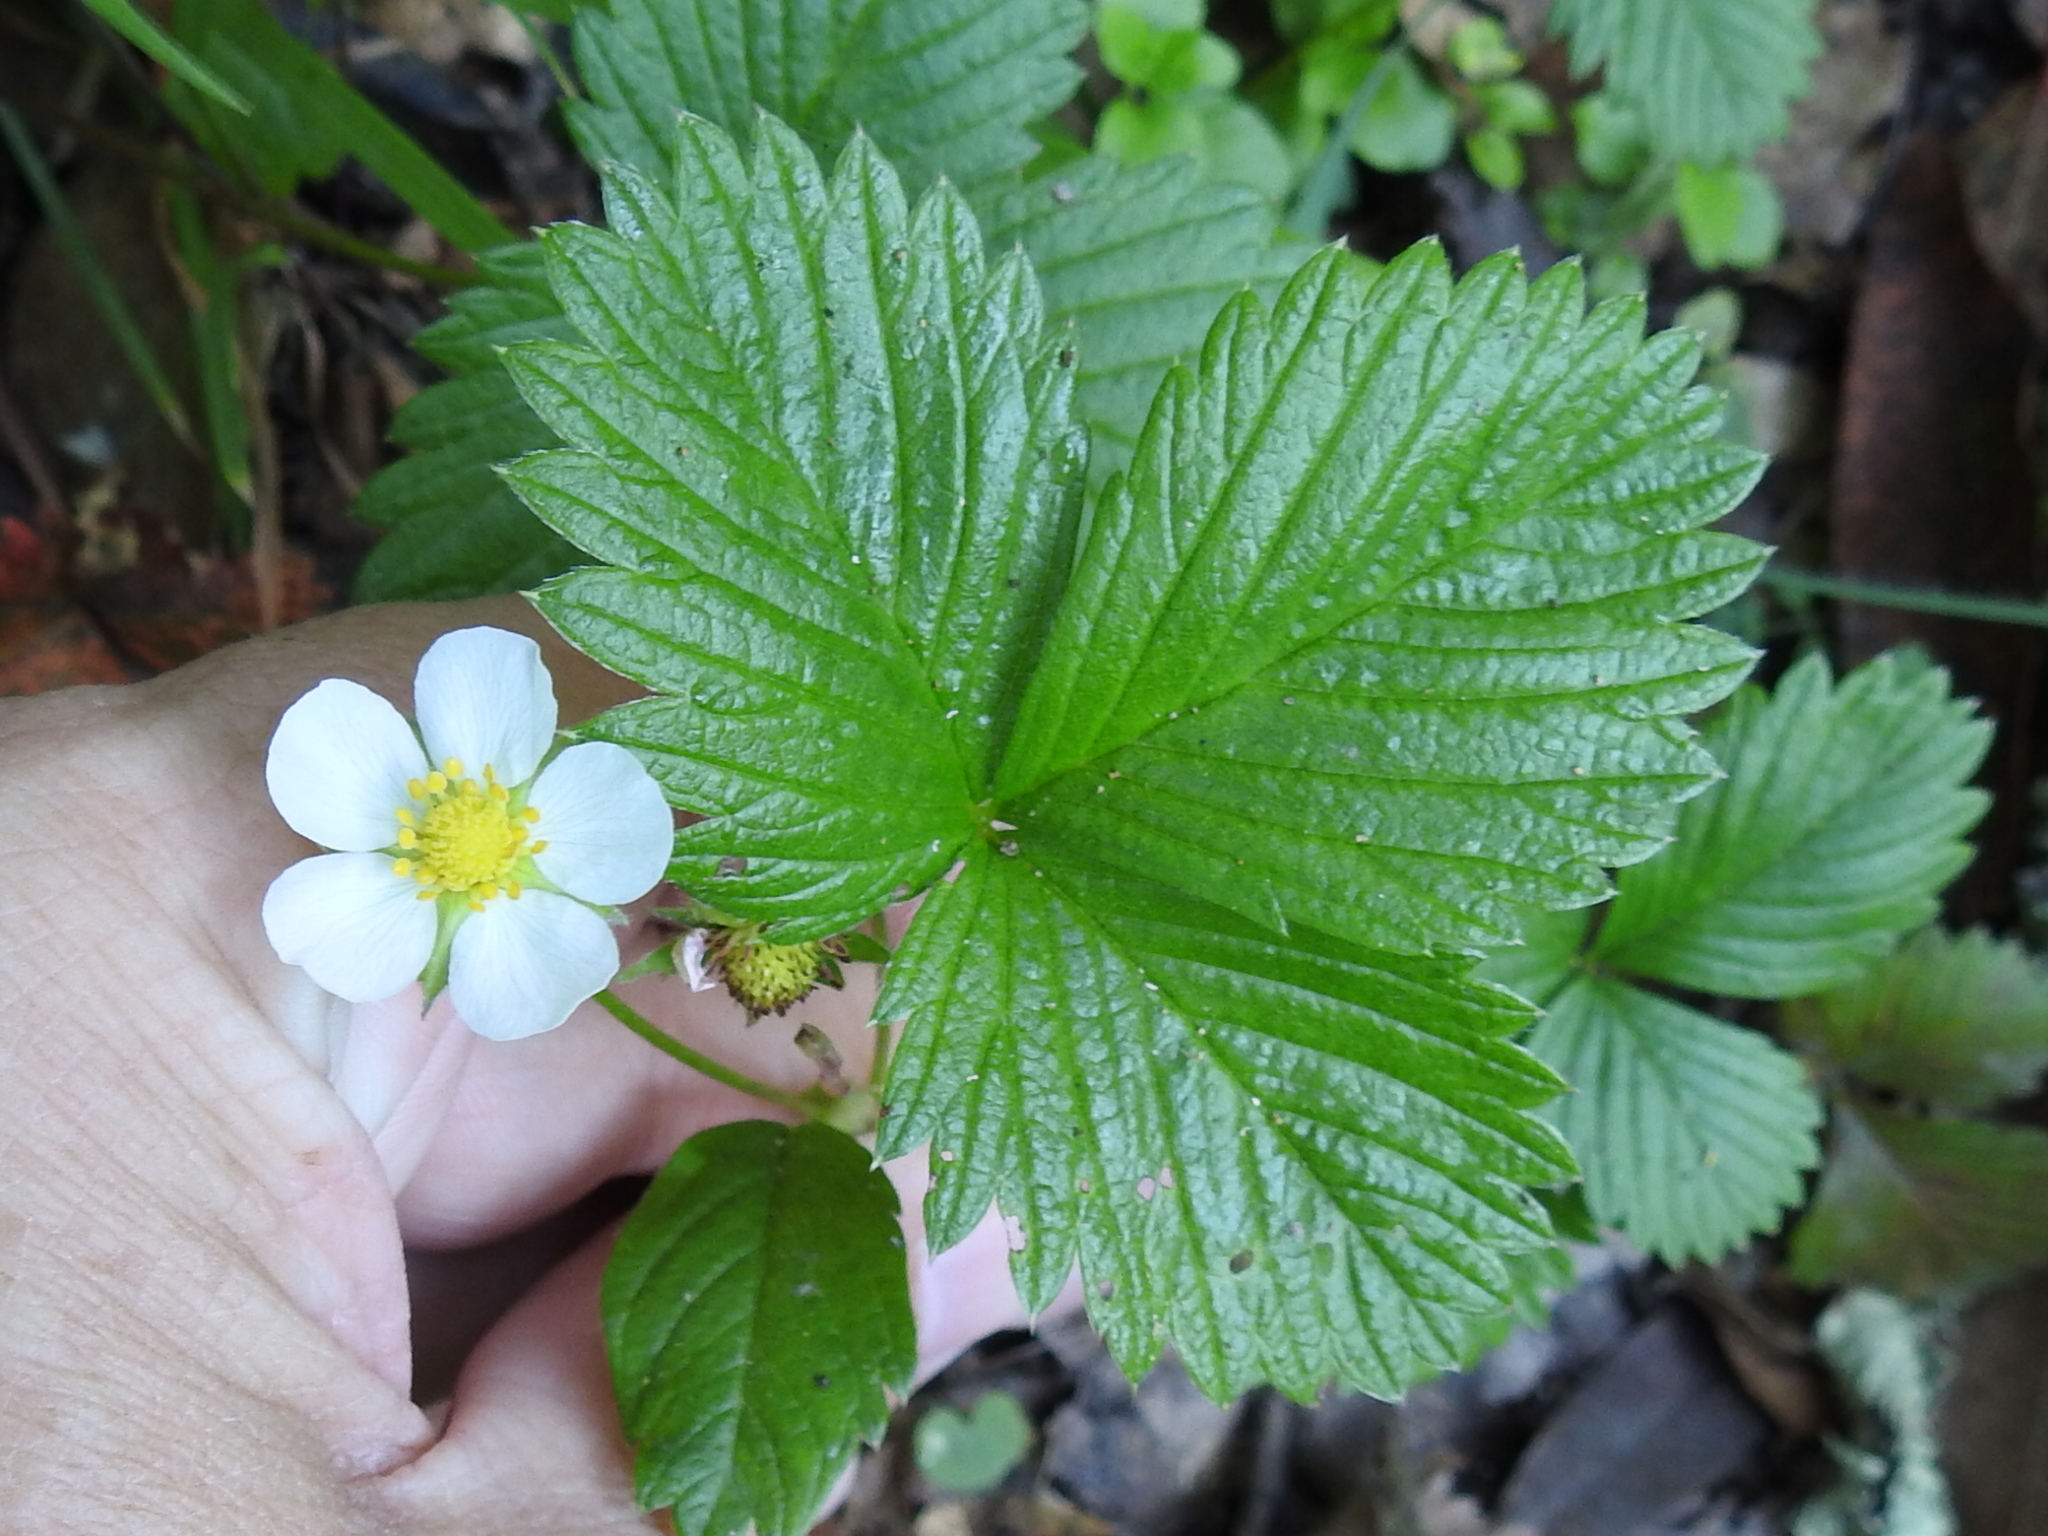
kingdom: Plantae
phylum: Tracheophyta
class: Magnoliopsida
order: Rosales
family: Rosaceae
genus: Fragaria
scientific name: Fragaria vesca
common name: Wild strawberry
